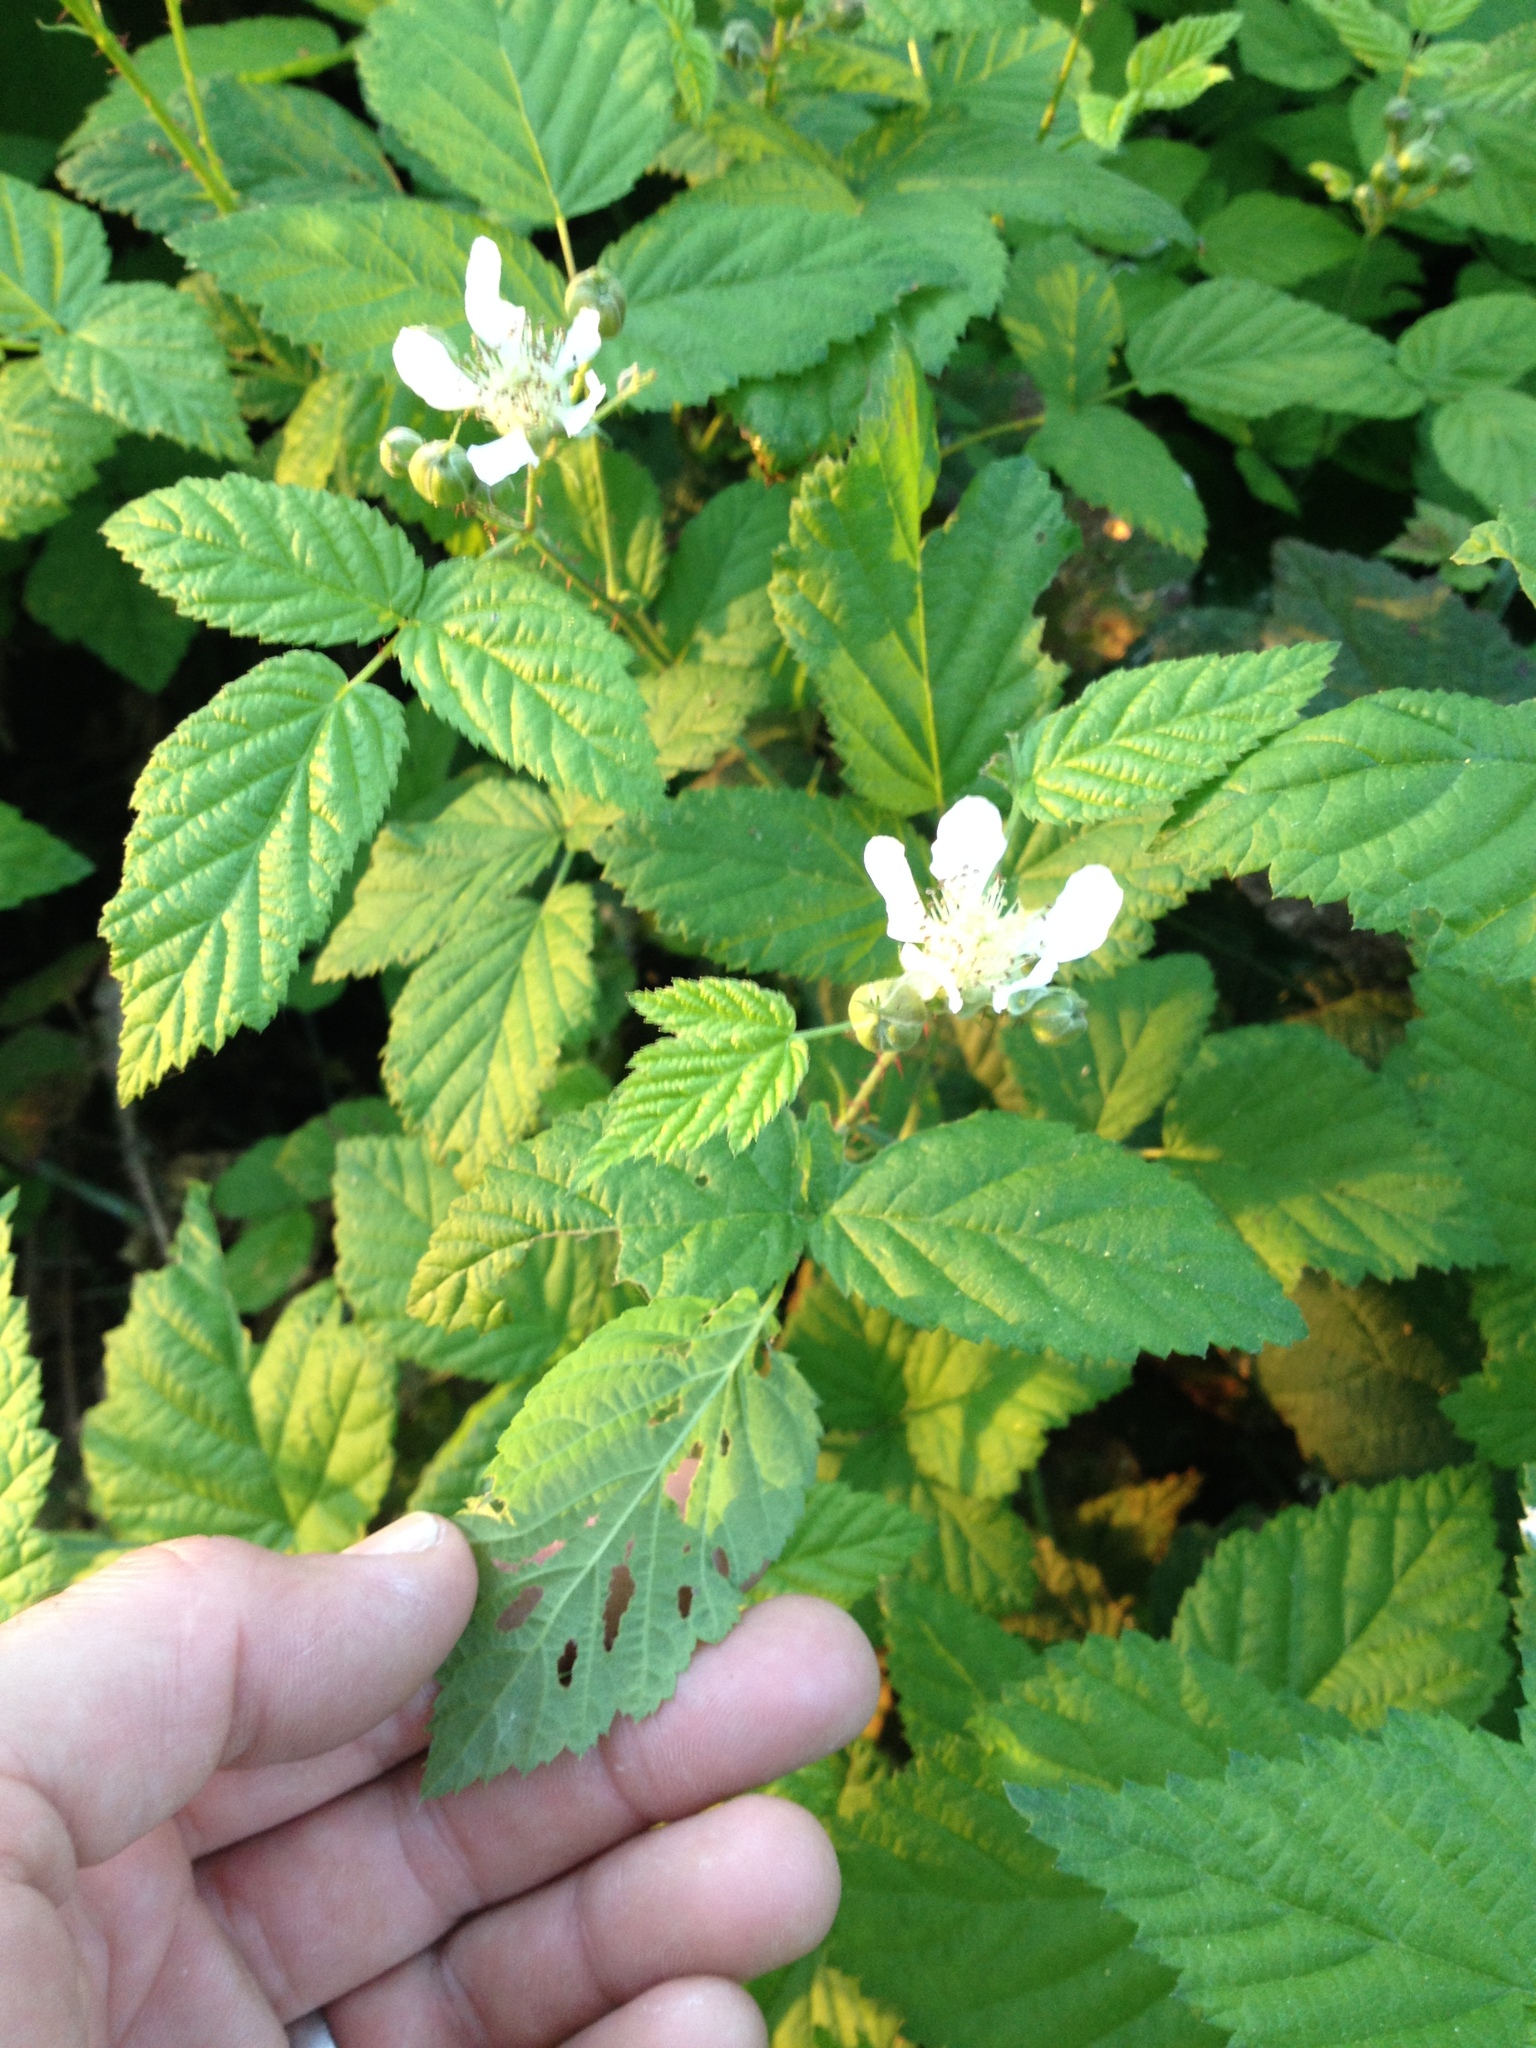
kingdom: Plantae
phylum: Tracheophyta
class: Magnoliopsida
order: Rosales
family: Rosaceae
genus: Rubus
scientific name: Rubus ursinus
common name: Pacific blackberry
